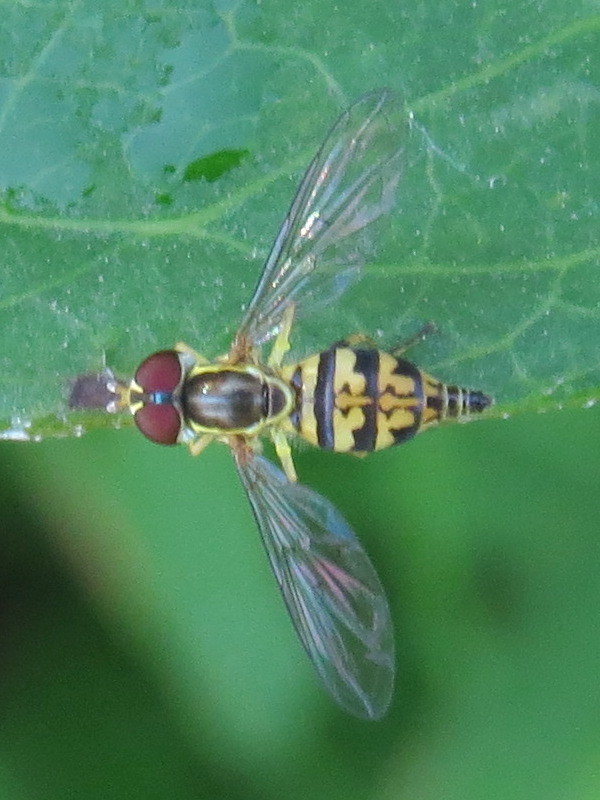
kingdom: Animalia
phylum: Arthropoda
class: Insecta
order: Diptera
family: Syrphidae
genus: Toxomerus
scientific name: Toxomerus geminatus
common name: Eastern calligrapher
